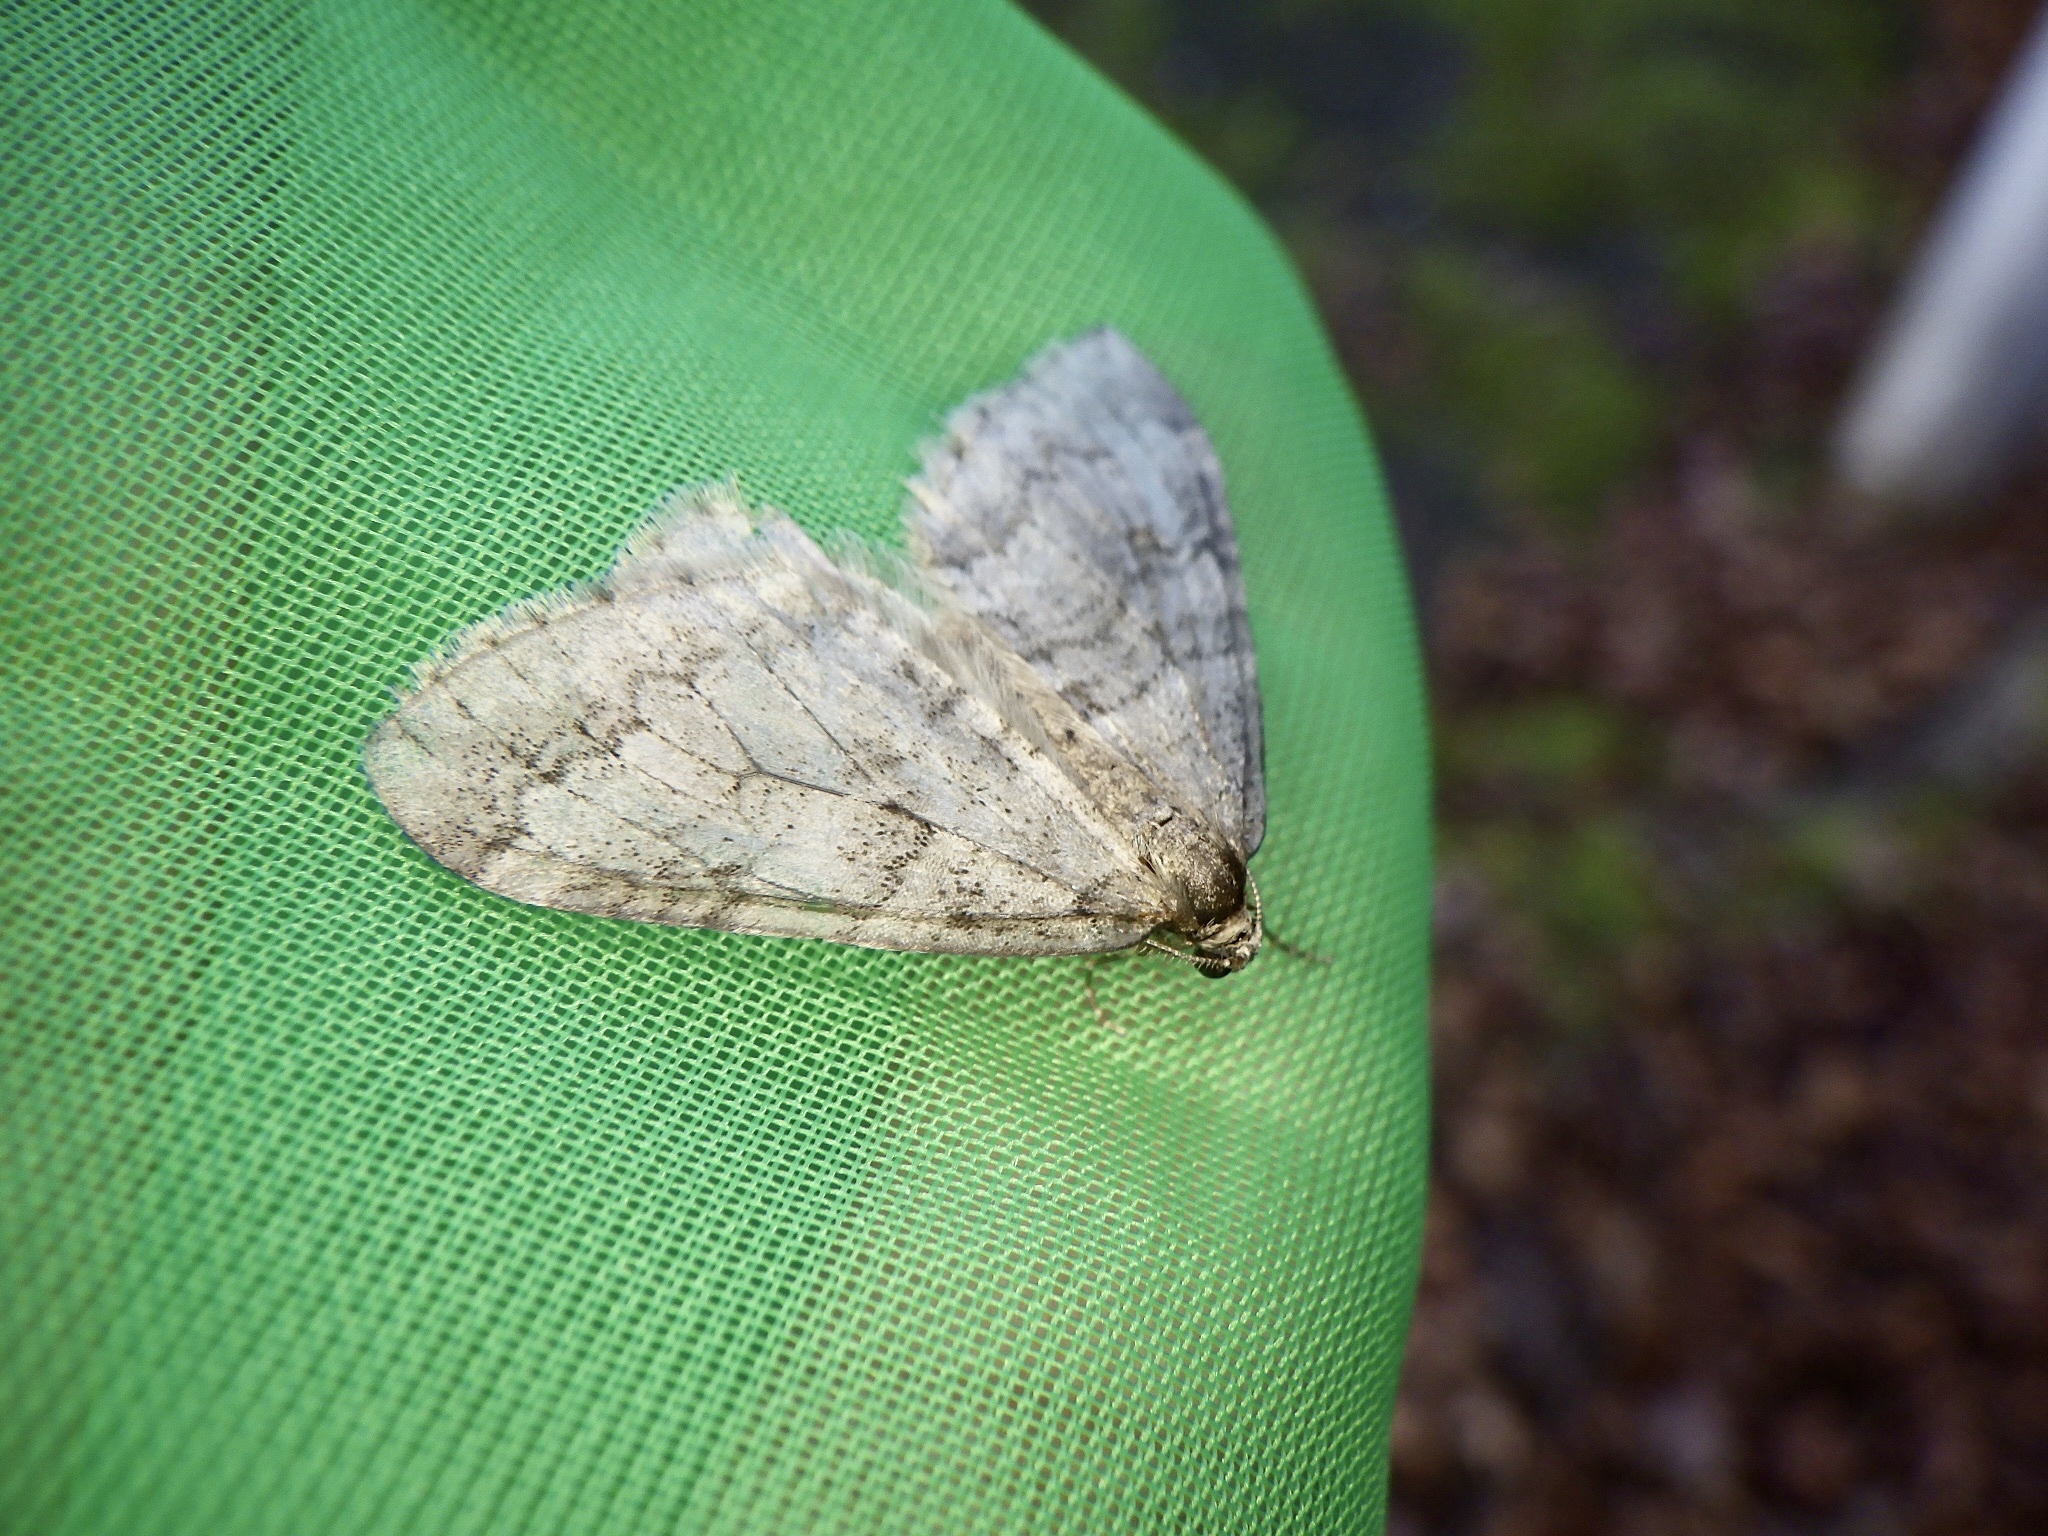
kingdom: Animalia
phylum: Arthropoda
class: Insecta
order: Lepidoptera
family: Geometridae
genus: Operophtera
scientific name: Operophtera relegata
